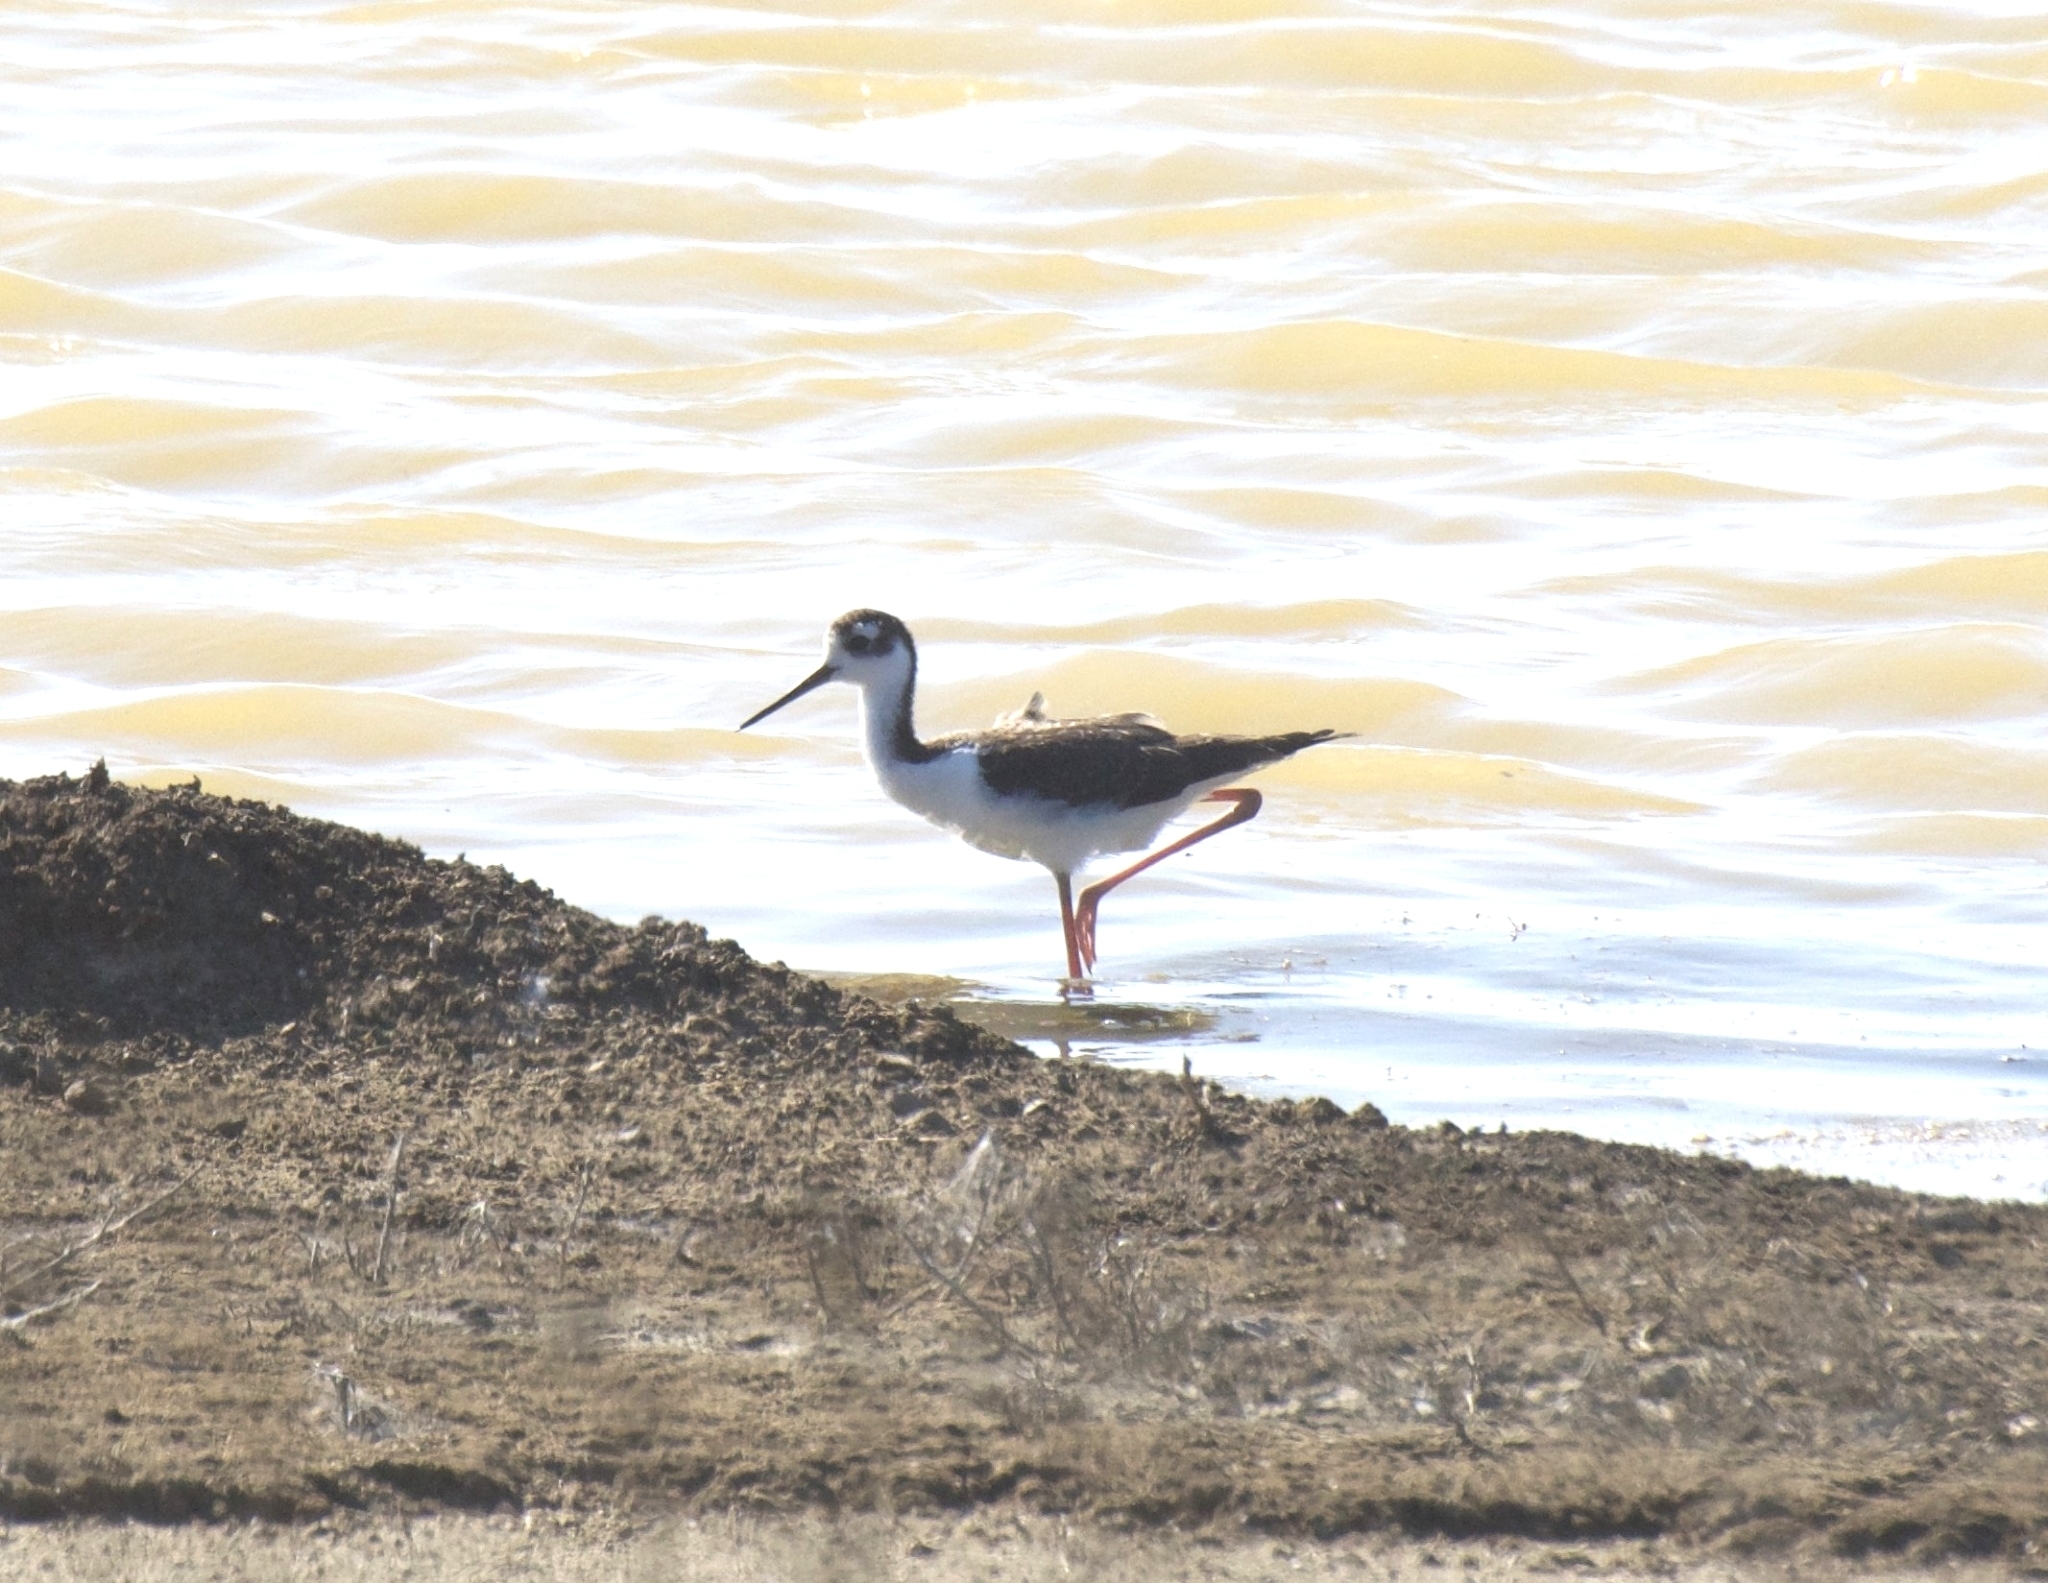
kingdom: Animalia
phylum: Chordata
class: Aves
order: Charadriiformes
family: Recurvirostridae
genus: Himantopus
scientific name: Himantopus mexicanus
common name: Black-necked stilt
